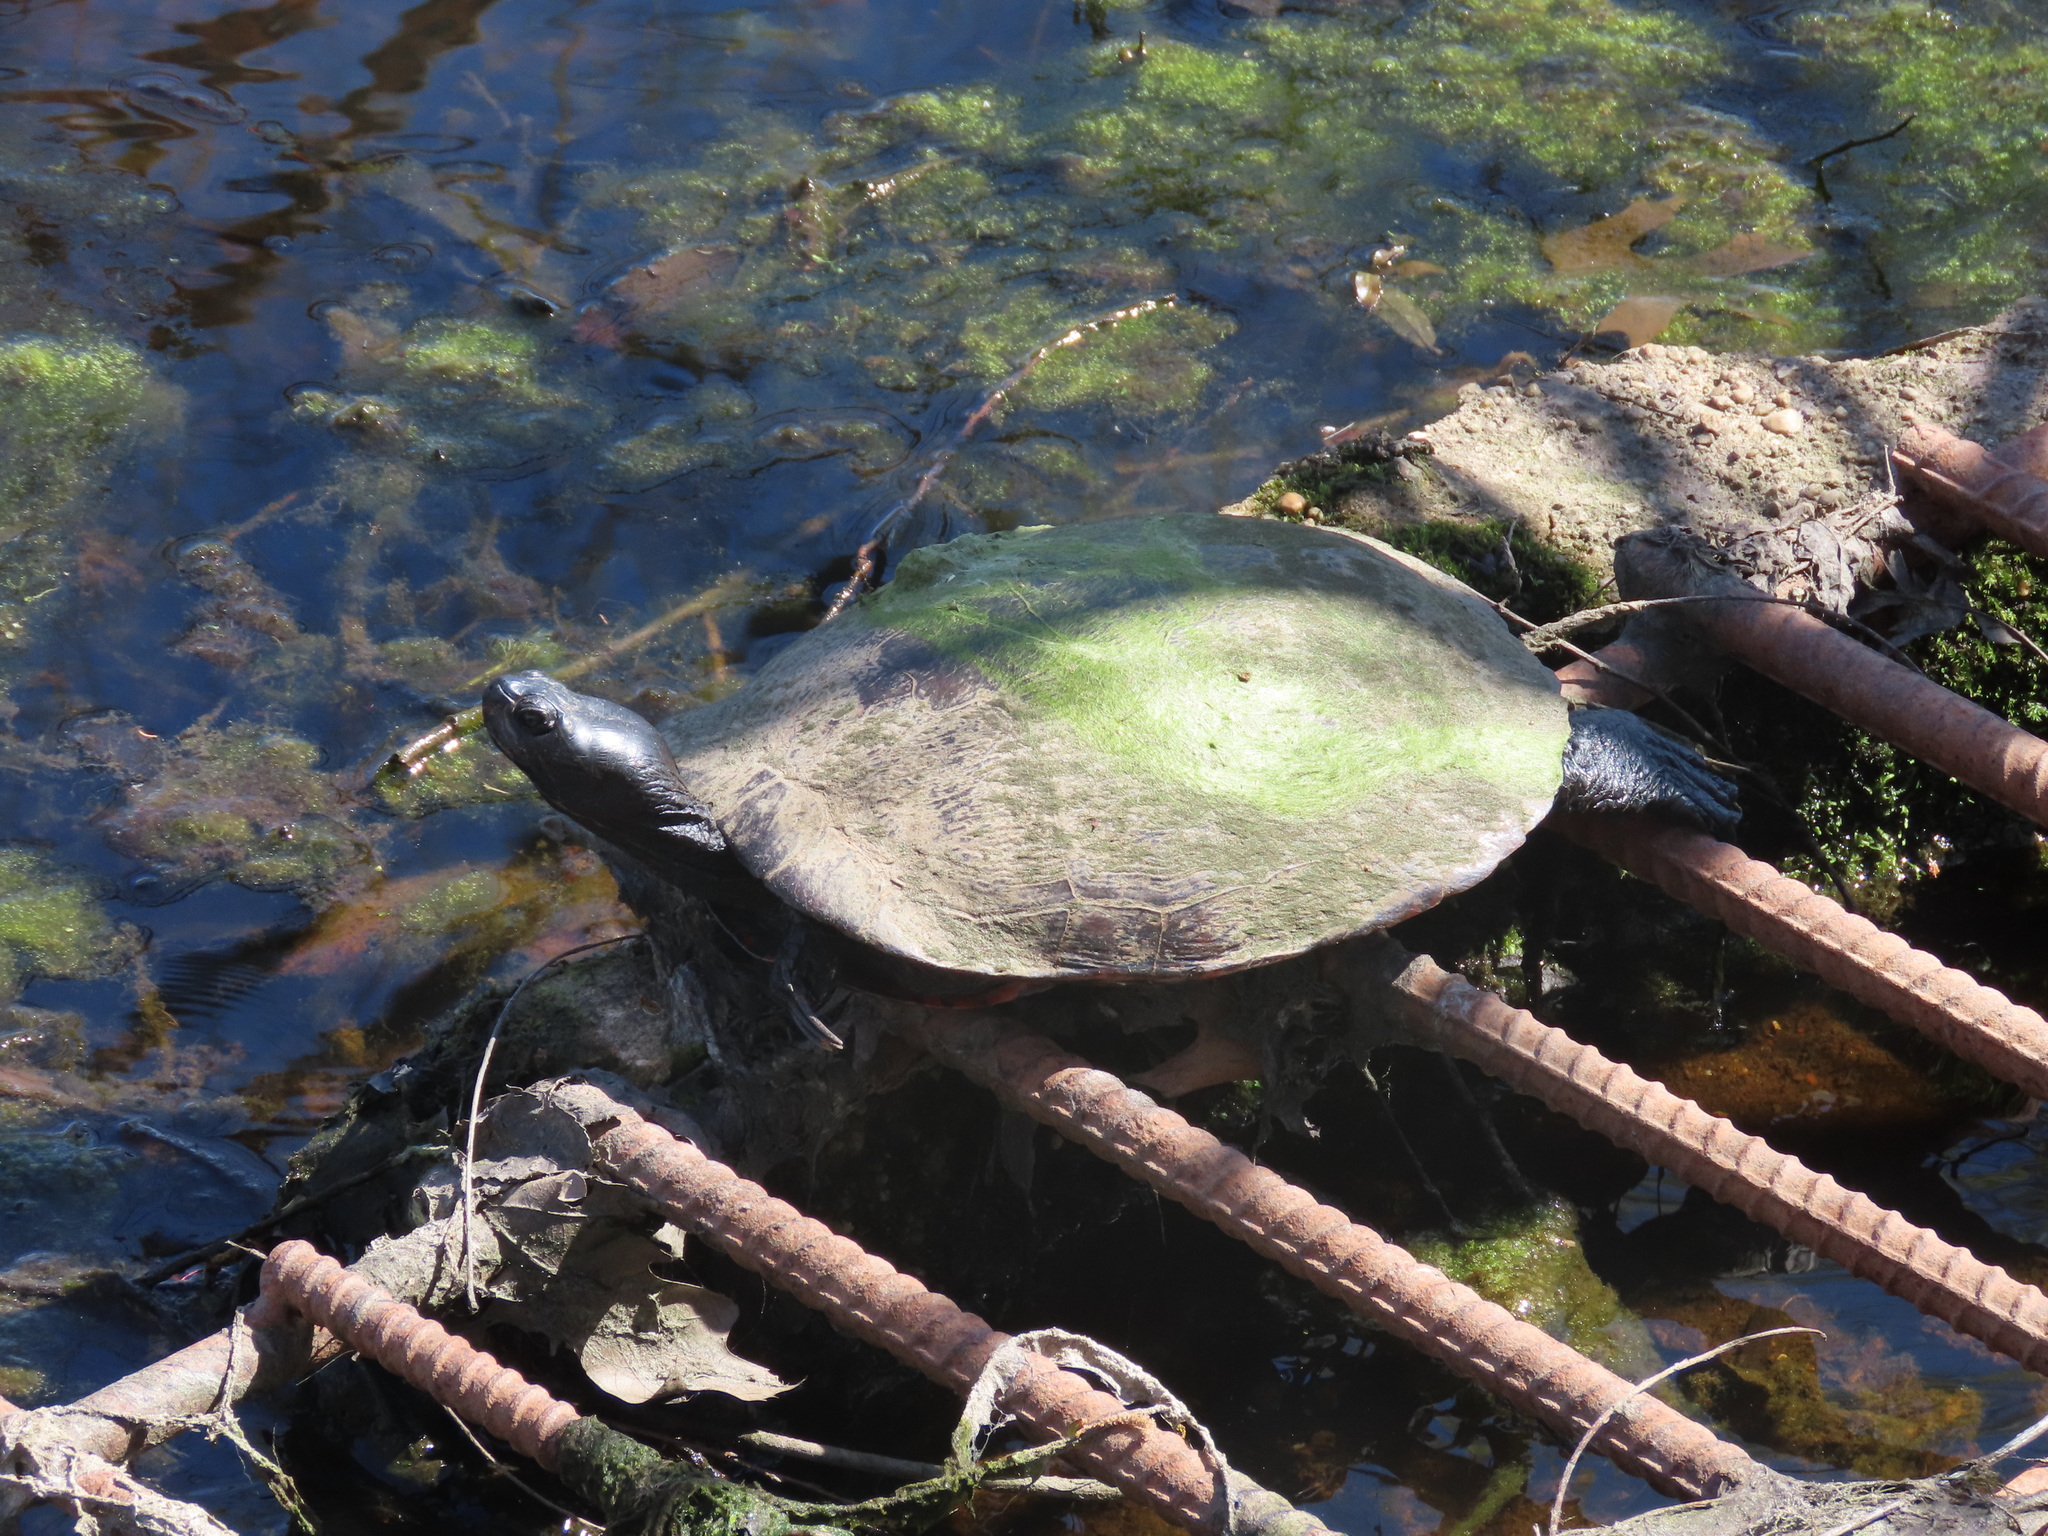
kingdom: Animalia
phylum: Chordata
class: Testudines
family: Emydidae
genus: Pseudemys
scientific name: Pseudemys rubriventris
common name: American red-bellied turtle
